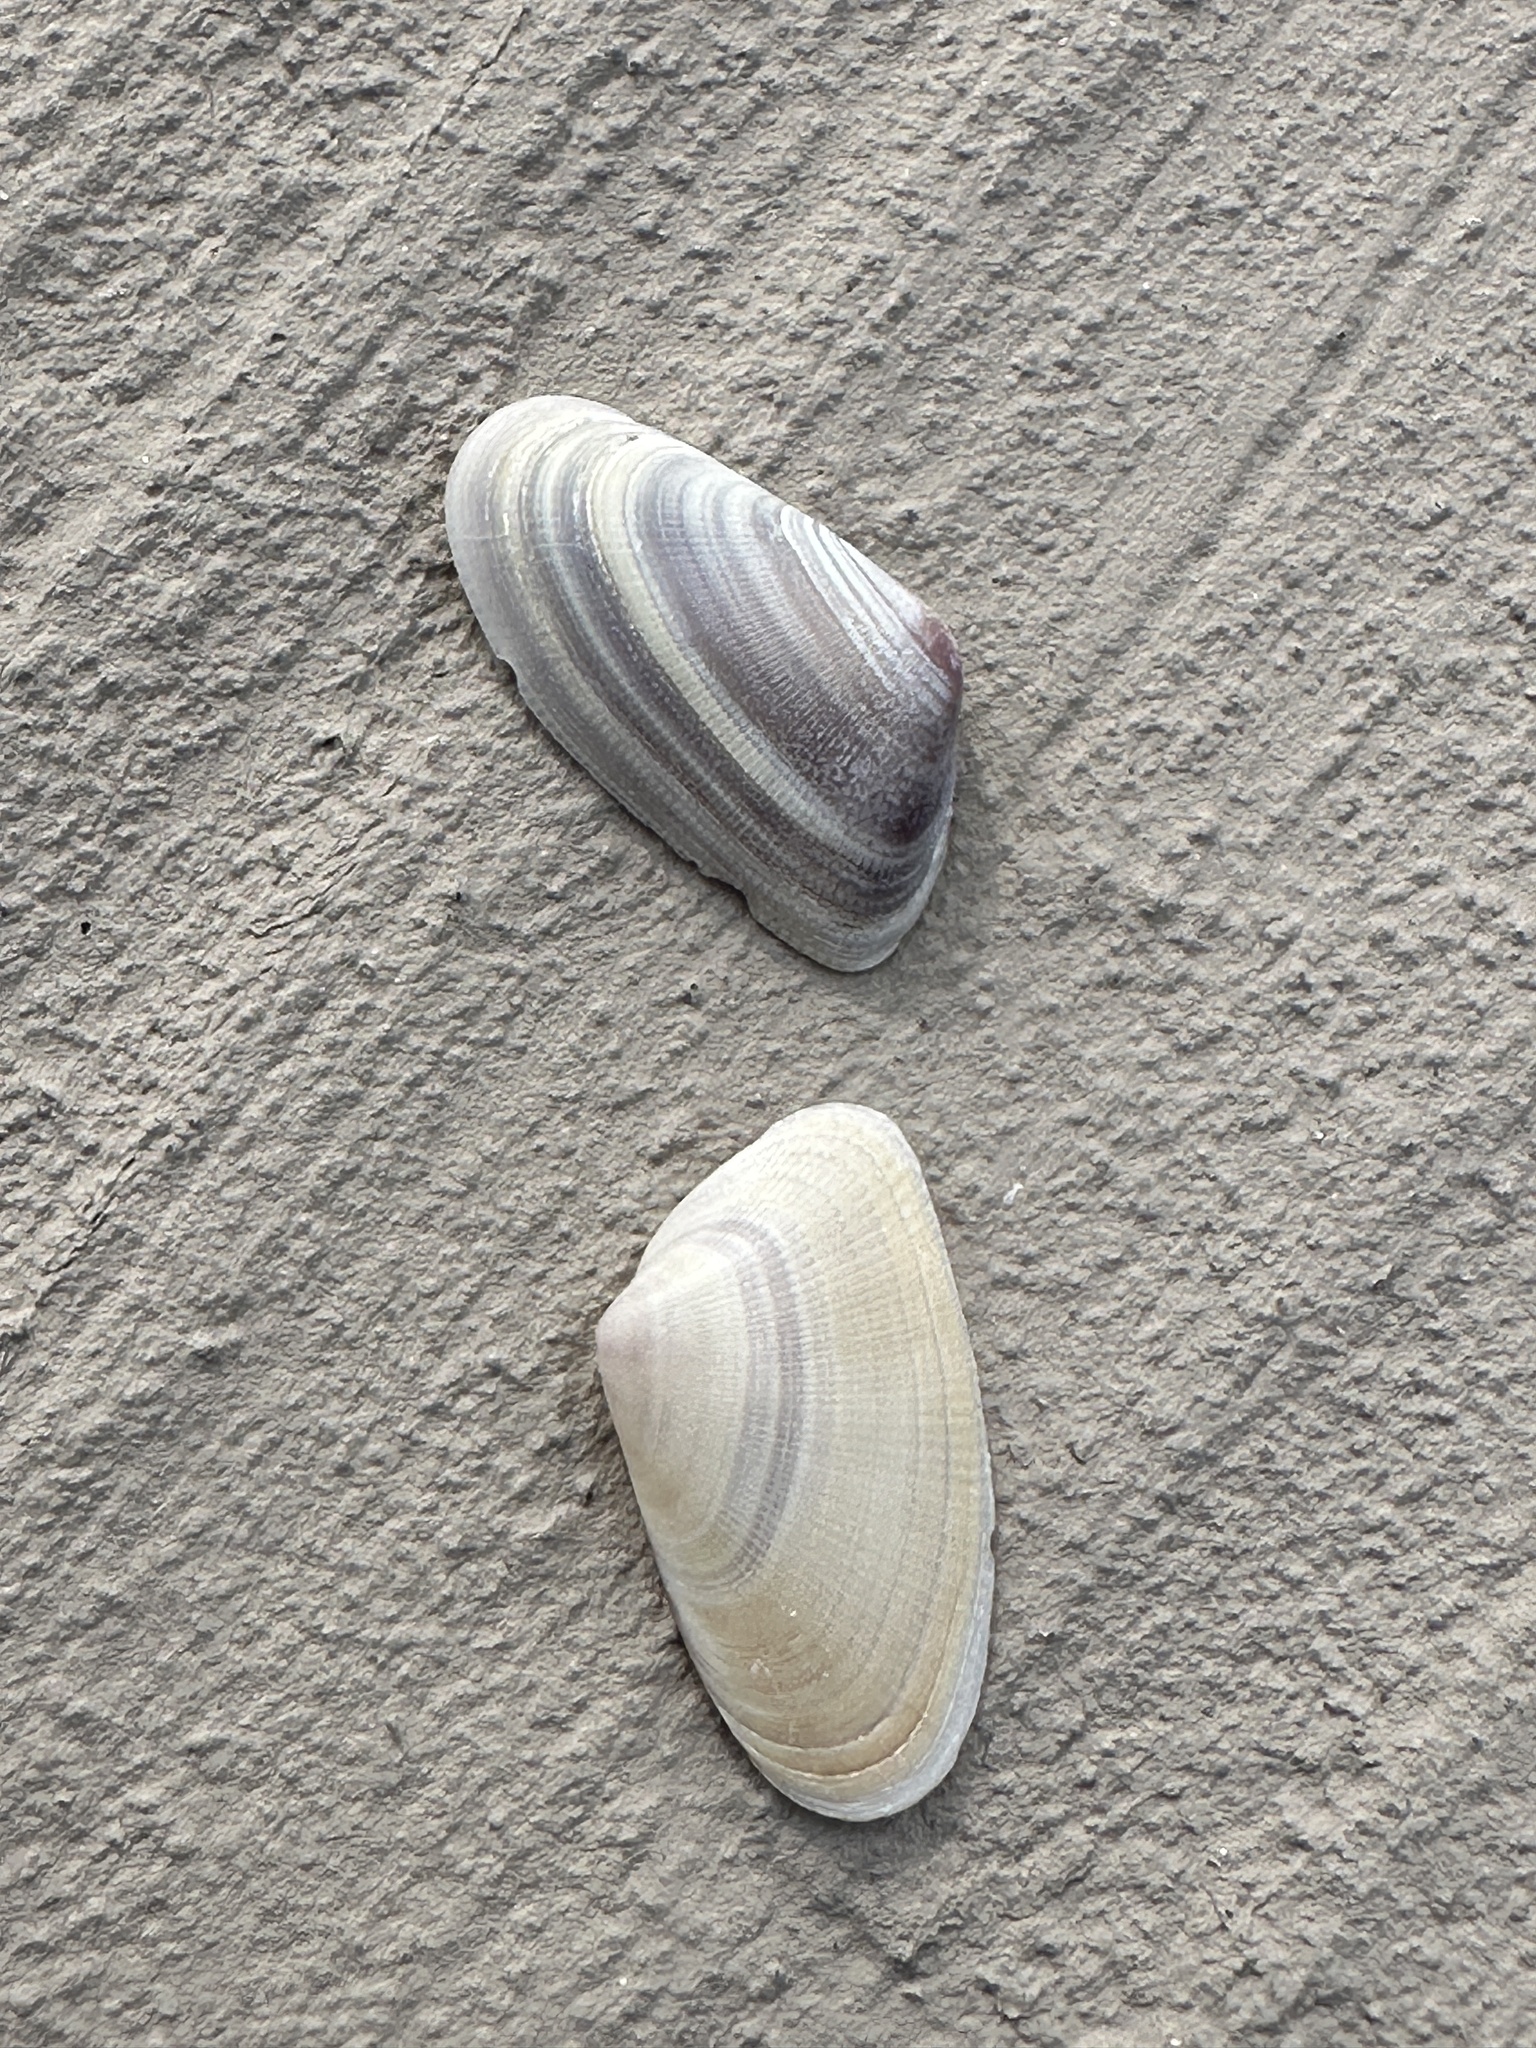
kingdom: Animalia
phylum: Mollusca
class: Bivalvia
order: Cardiida
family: Donacidae
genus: Donax
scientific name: Donax variabilis
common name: Butterfly shell
